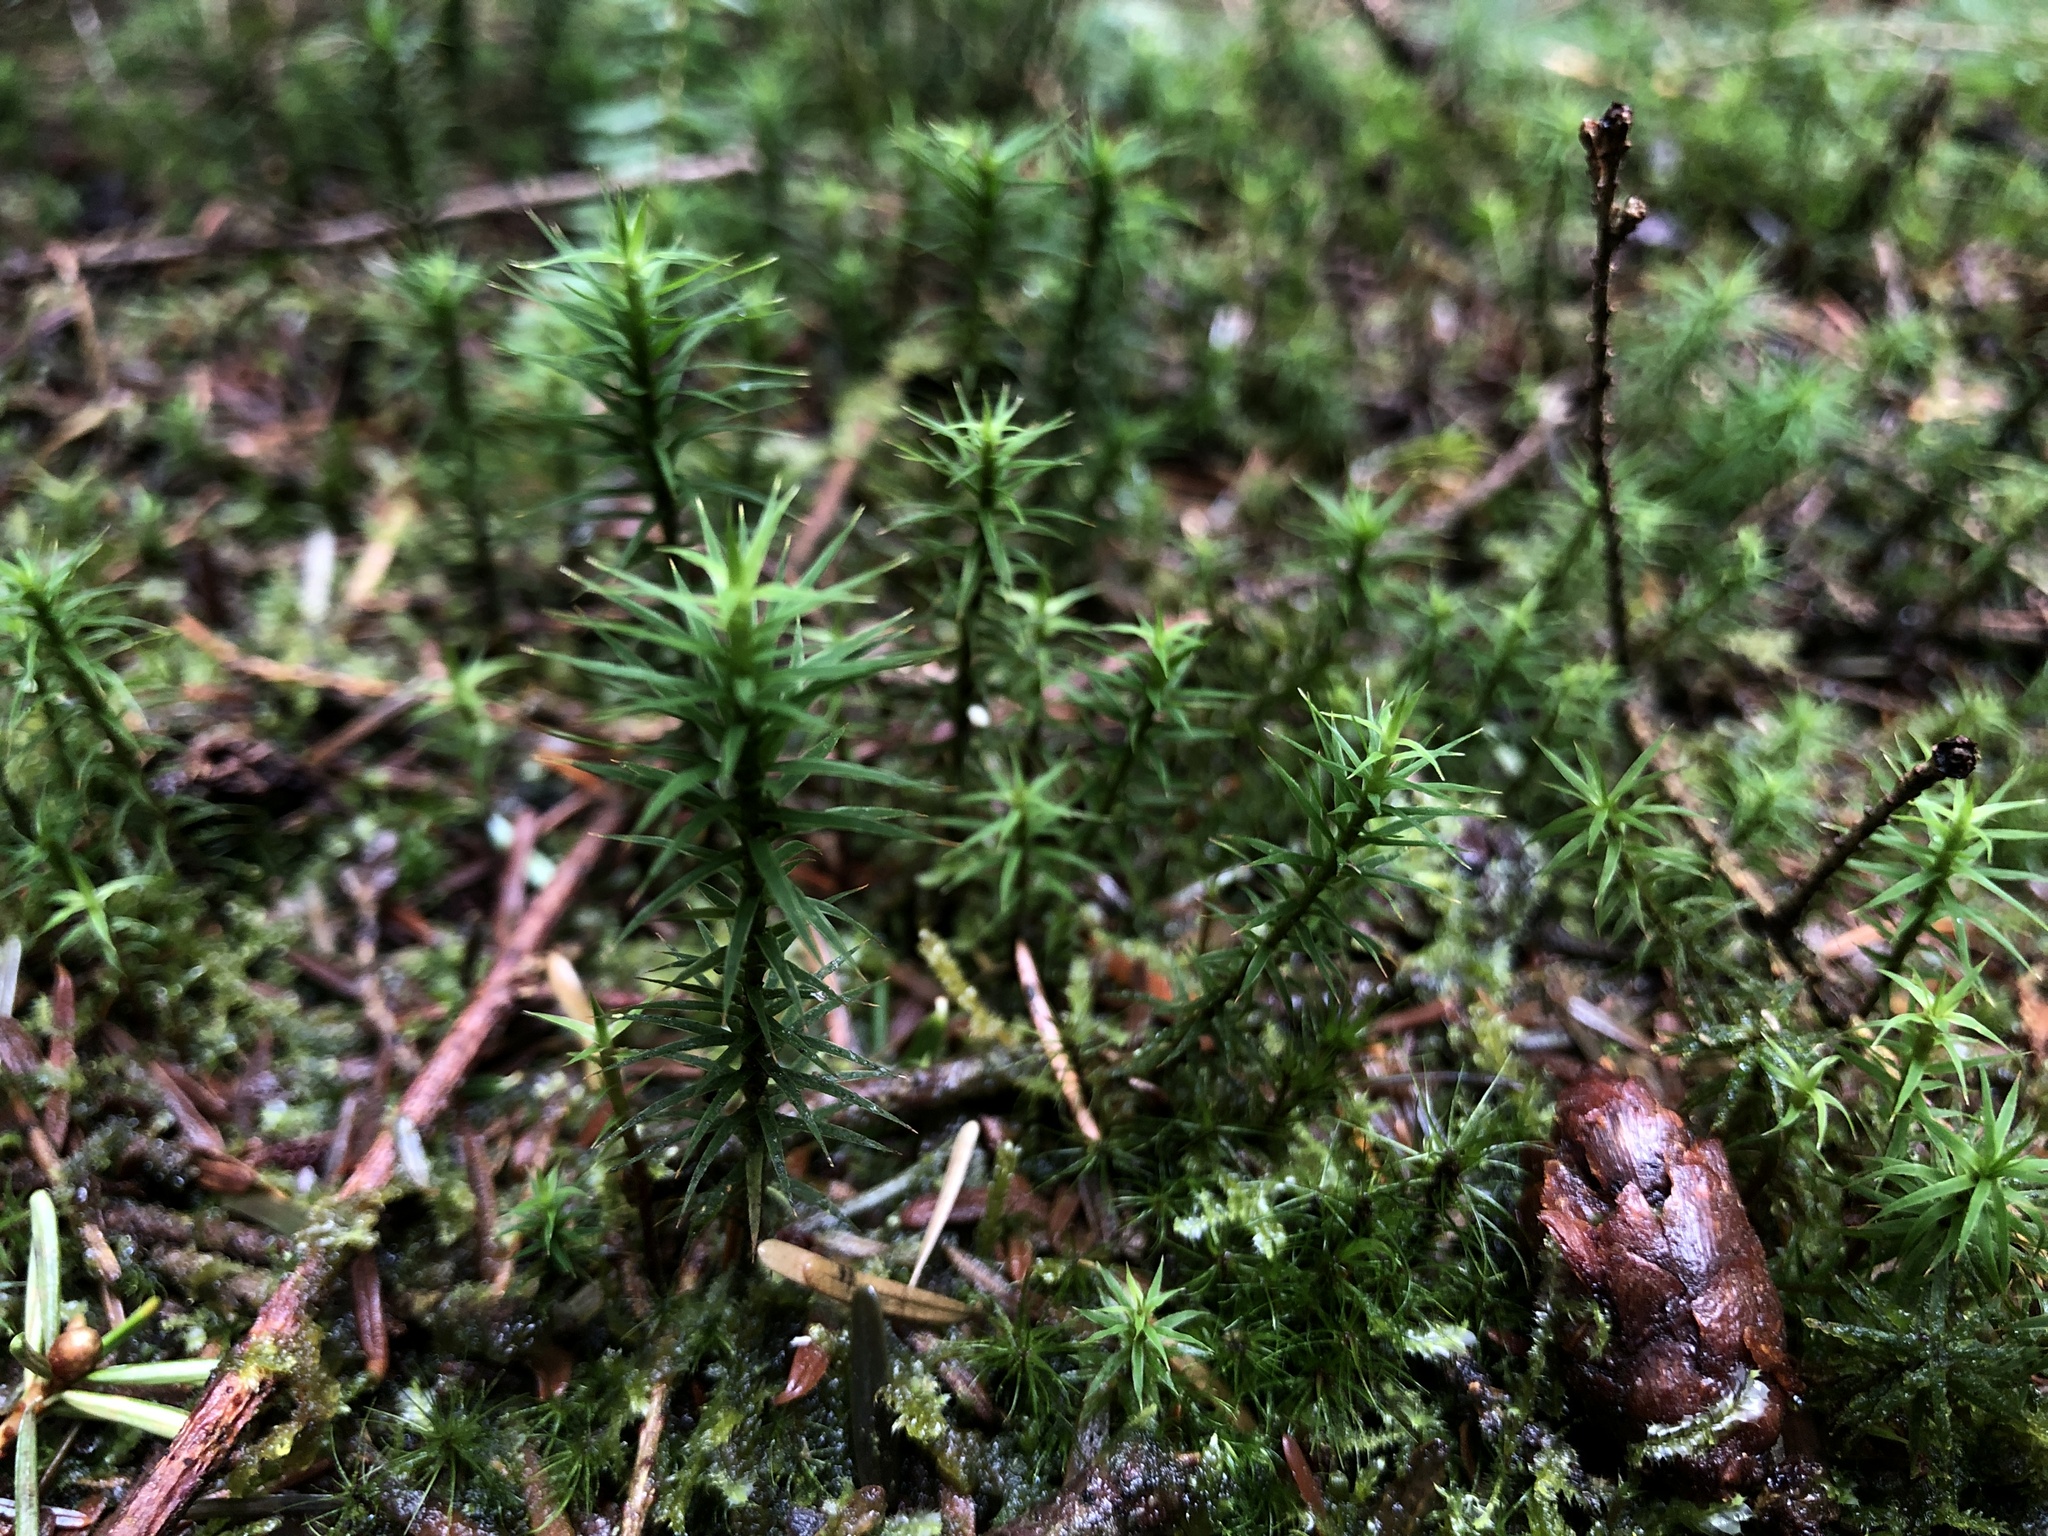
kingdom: Plantae
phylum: Bryophyta
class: Polytrichopsida
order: Polytrichales
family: Polytrichaceae
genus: Polytrichum
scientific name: Polytrichum formosum
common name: Bank haircap moss
